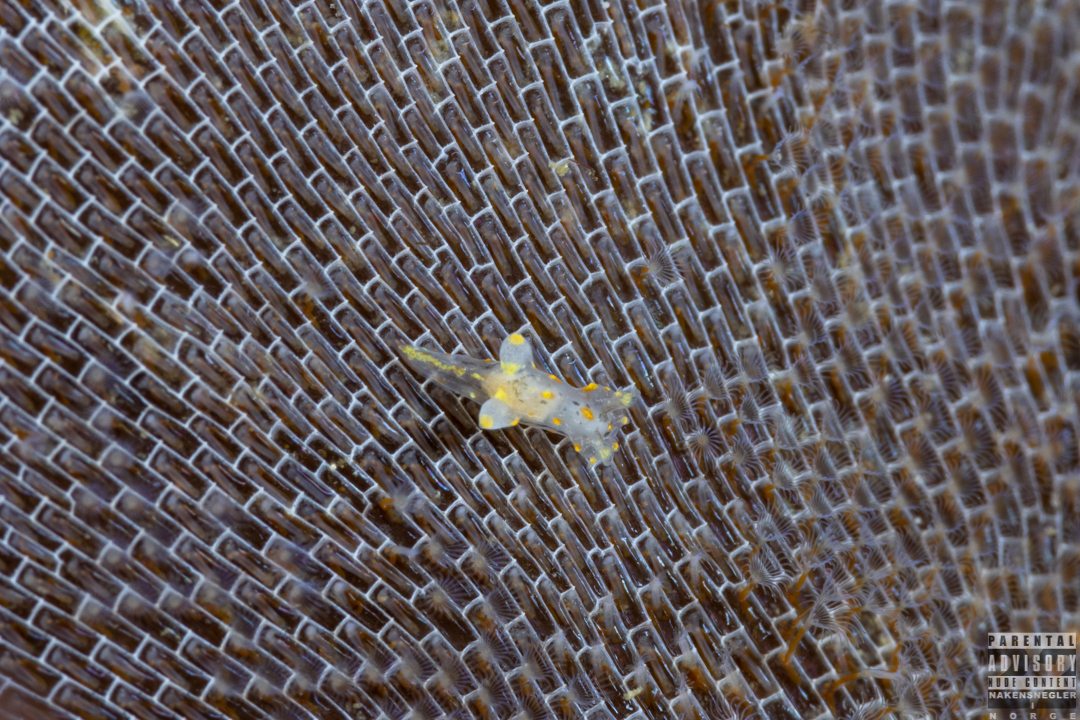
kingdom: Animalia
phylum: Mollusca
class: Gastropoda
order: Nudibranchia
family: Polyceridae
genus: Polycera
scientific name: Polycera norvegica
